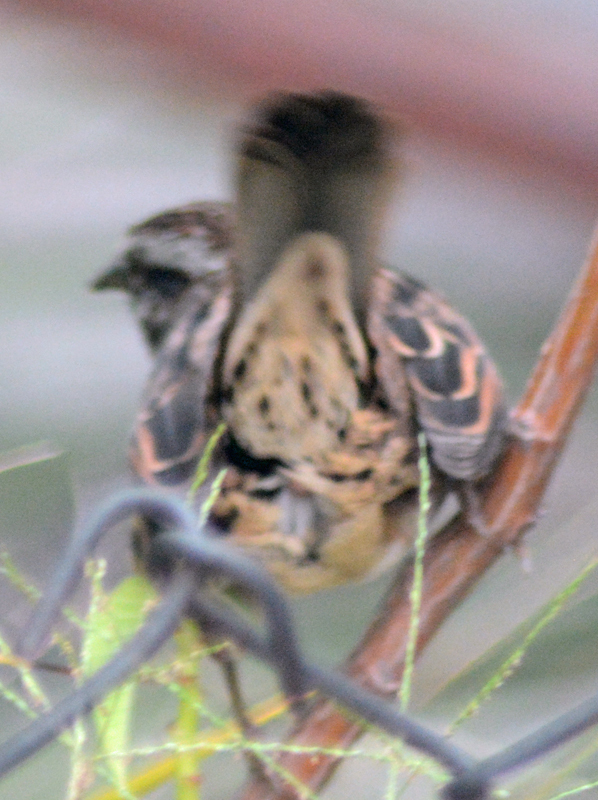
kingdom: Animalia
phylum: Chordata
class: Aves
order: Passeriformes
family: Passerellidae
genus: Melospiza
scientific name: Melospiza melodia
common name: Song sparrow
